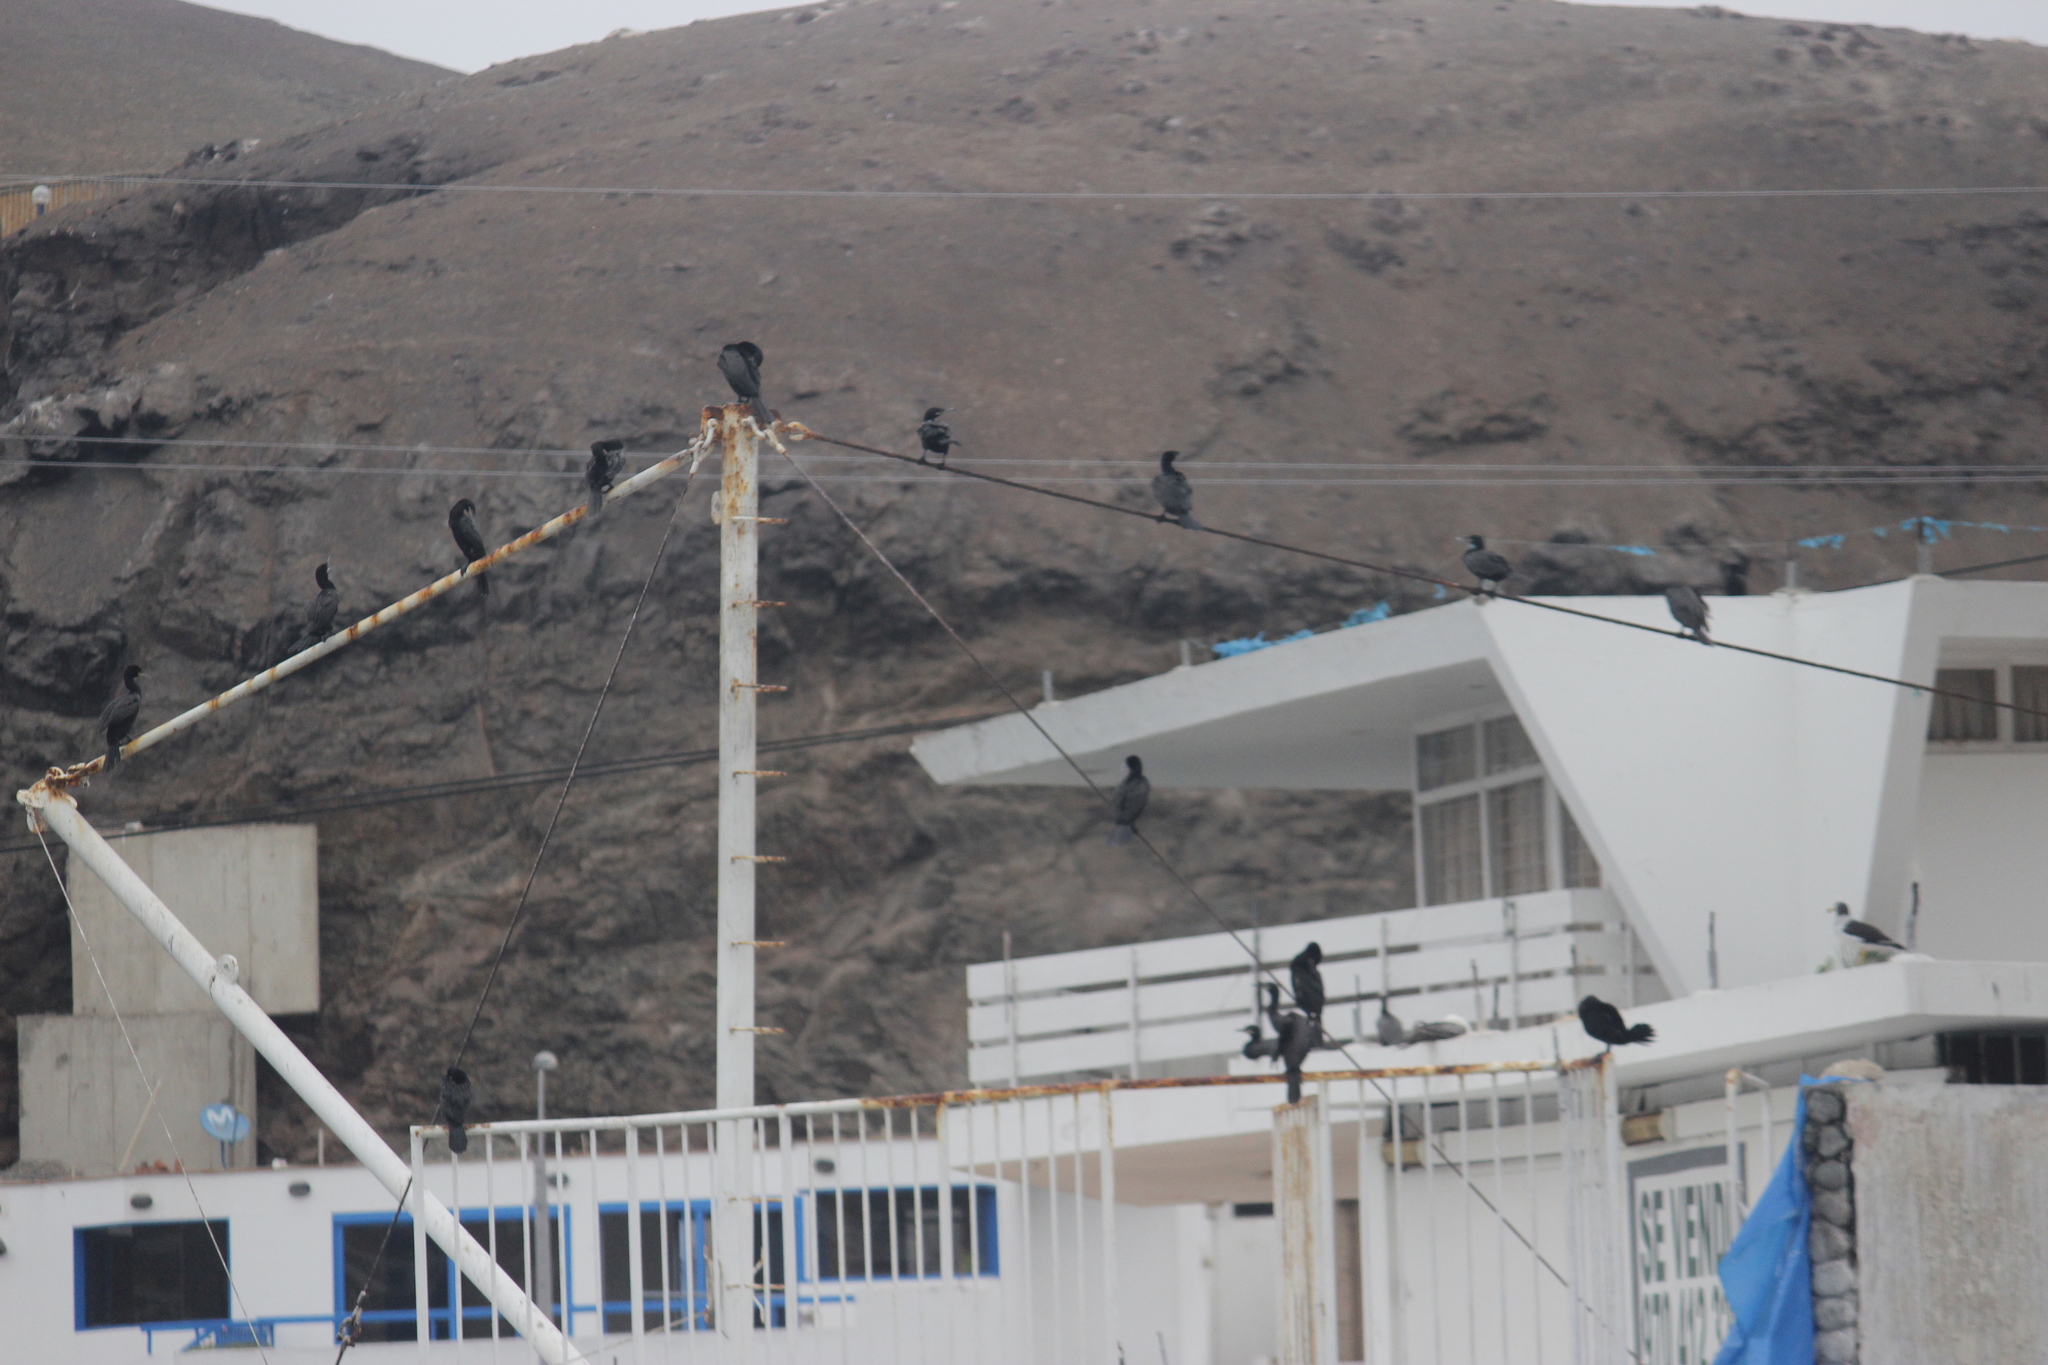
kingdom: Animalia
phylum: Chordata
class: Aves
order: Suliformes
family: Phalacrocoracidae
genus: Phalacrocorax
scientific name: Phalacrocorax brasilianus
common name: Neotropic cormorant
